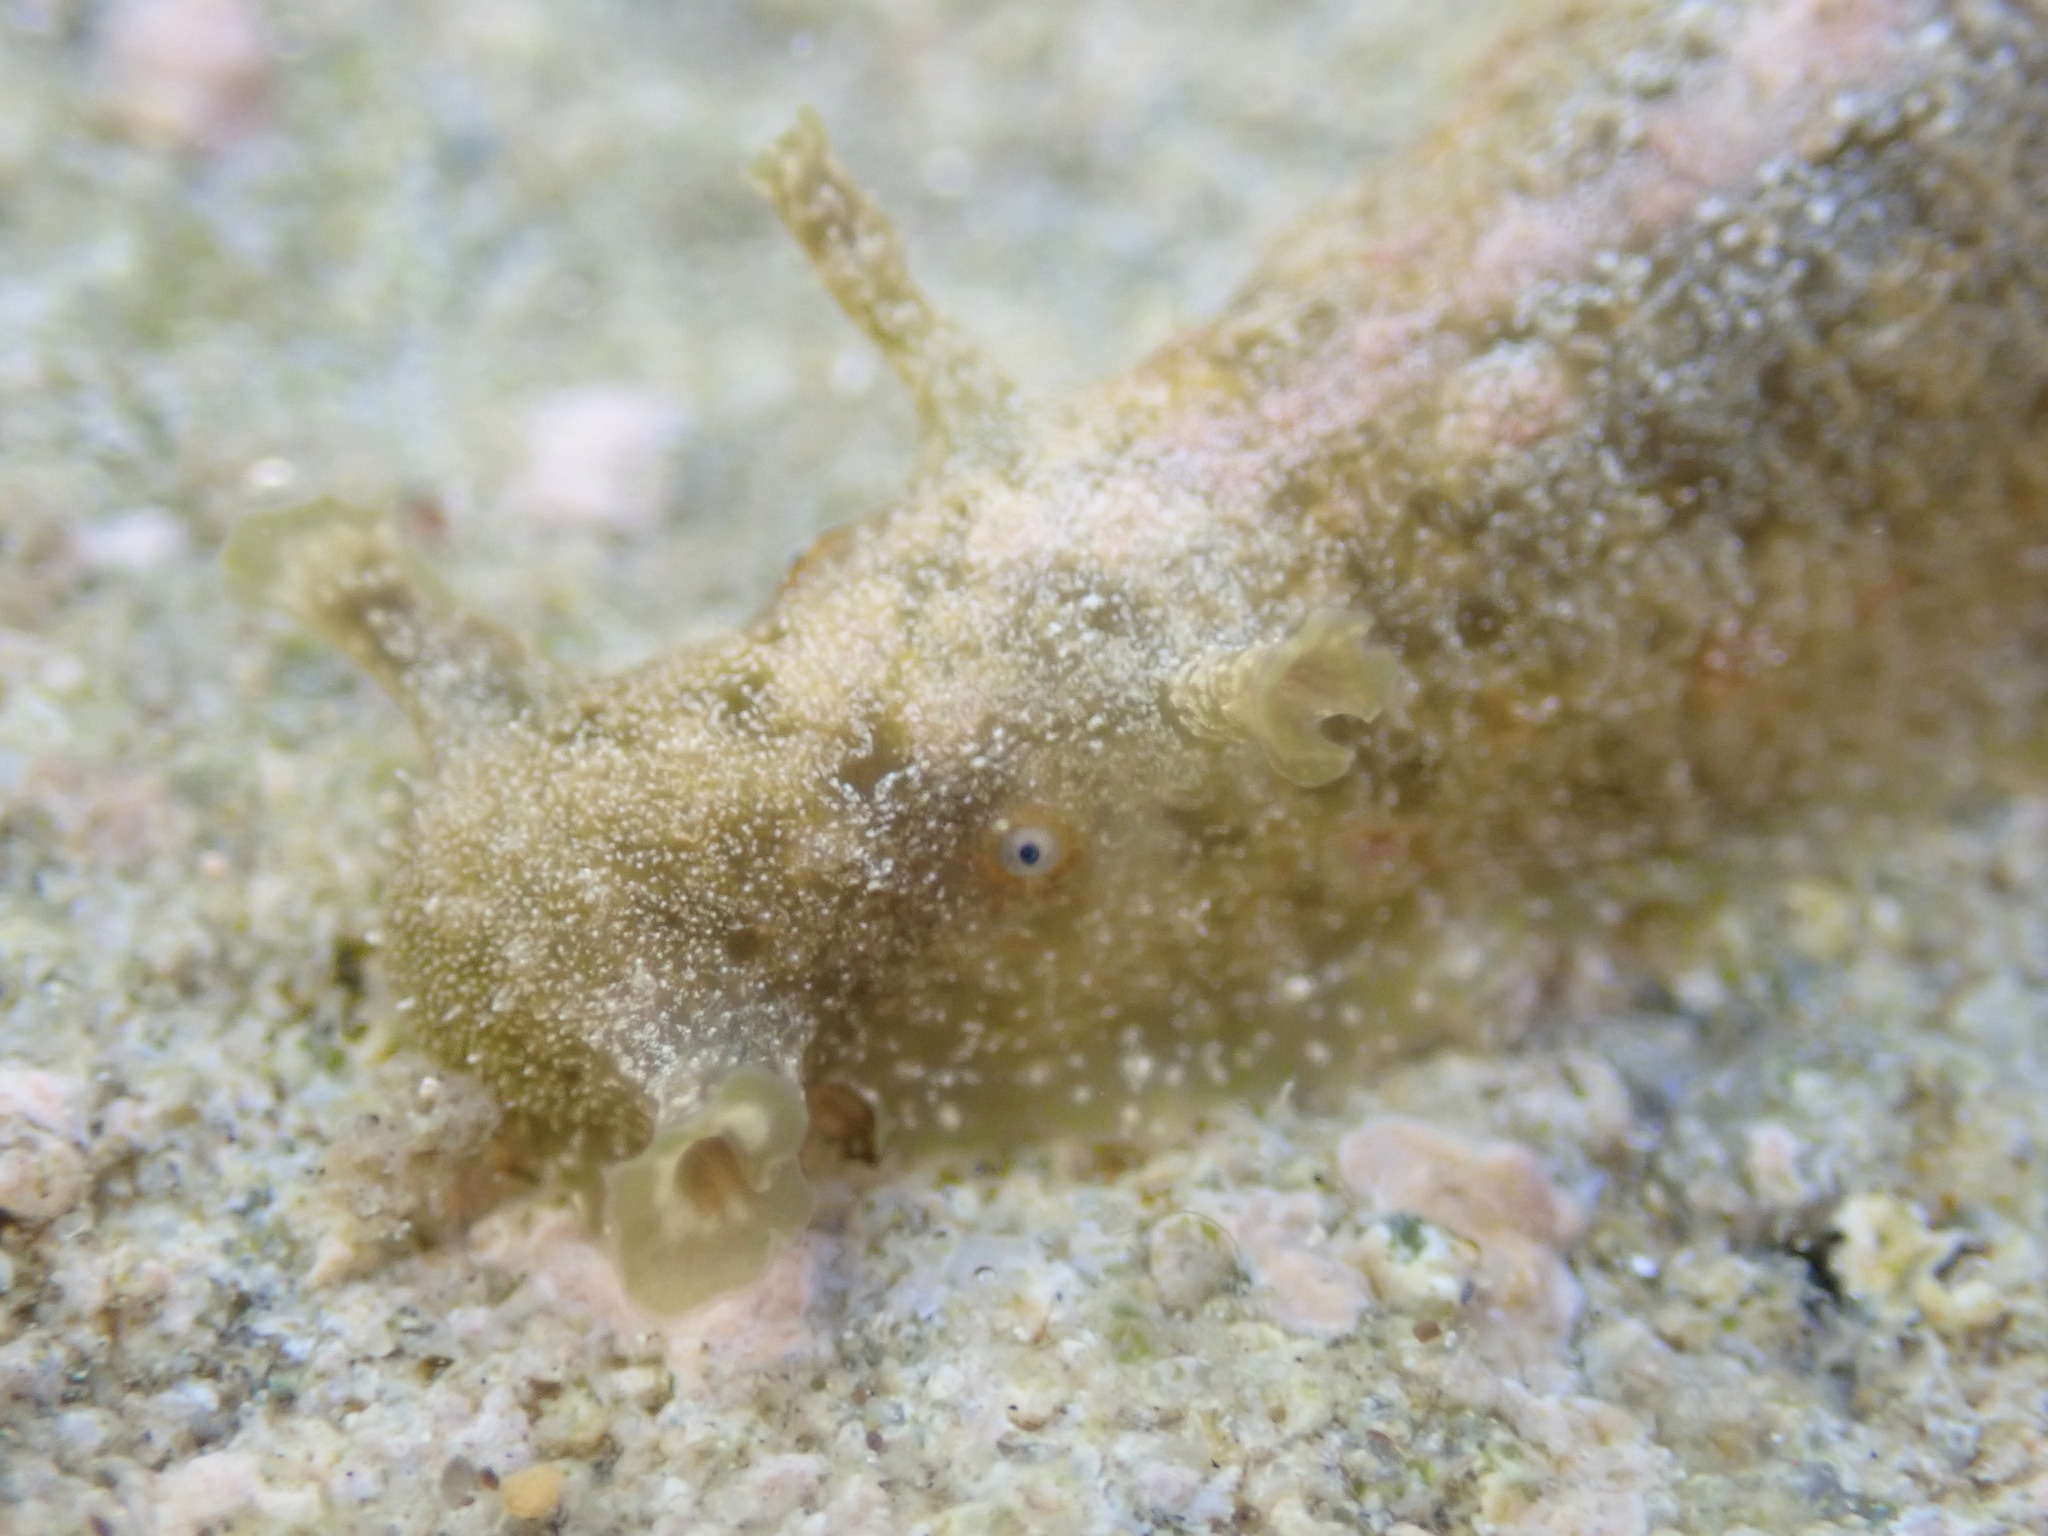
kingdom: Animalia
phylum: Mollusca
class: Gastropoda
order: Aplysiida
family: Aplysiidae
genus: Dolabrifera
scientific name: Dolabrifera dolabrifera
